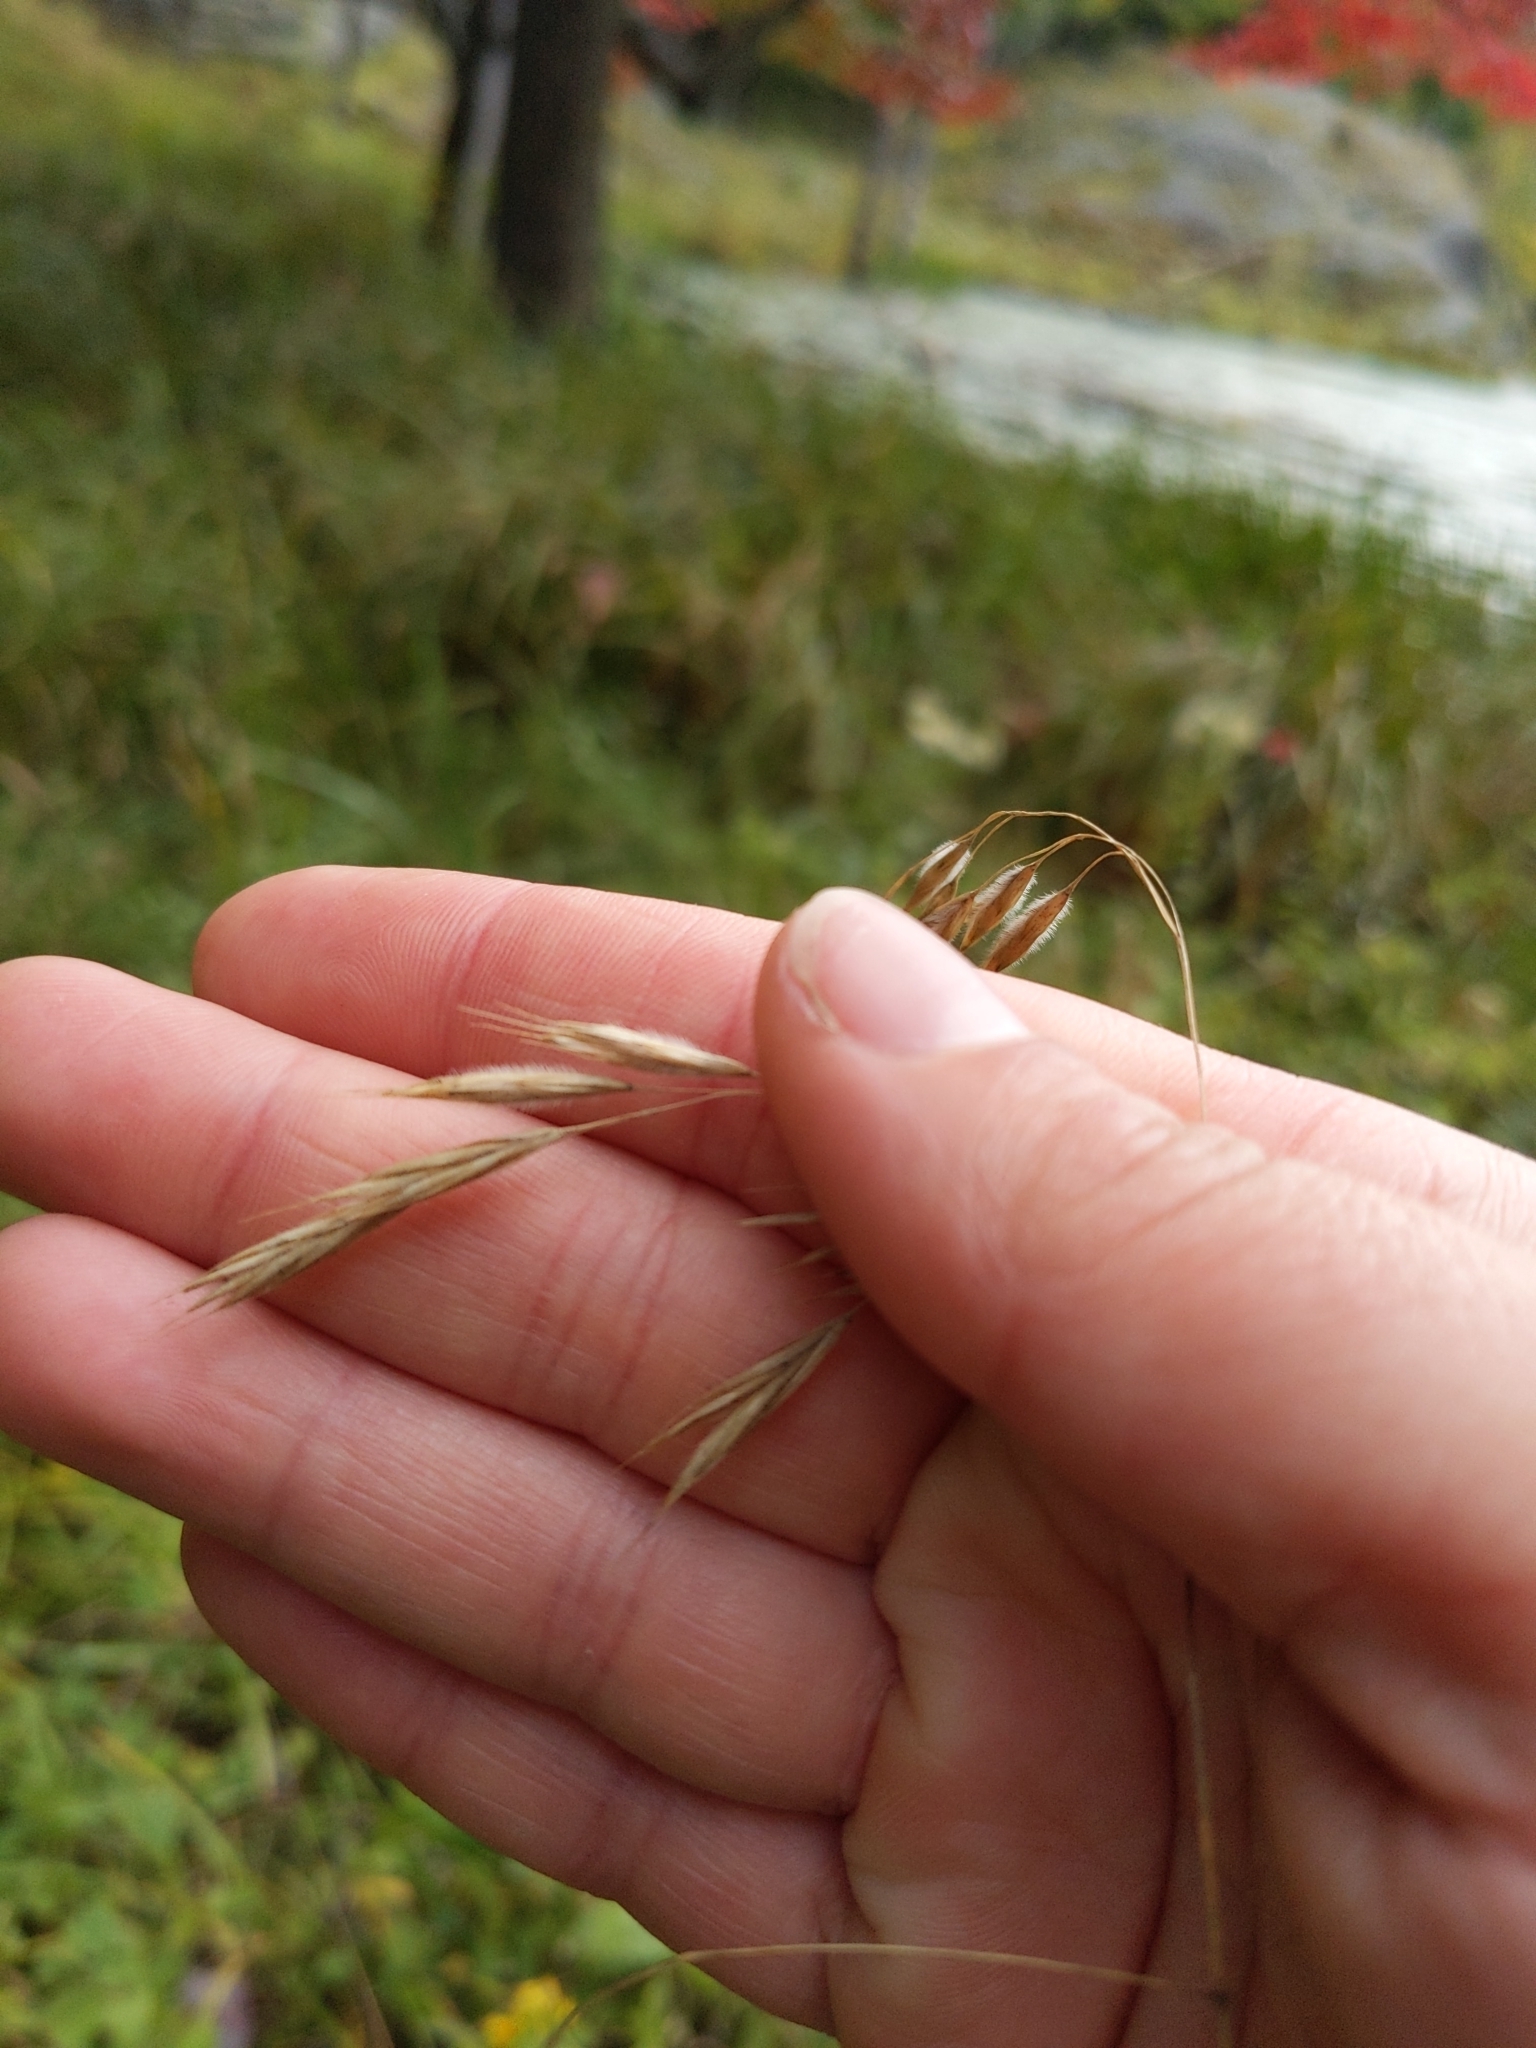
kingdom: Plantae
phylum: Tracheophyta
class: Liliopsida
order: Poales
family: Poaceae
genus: Bromus
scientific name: Bromus ciliatus
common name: Fringe brome
